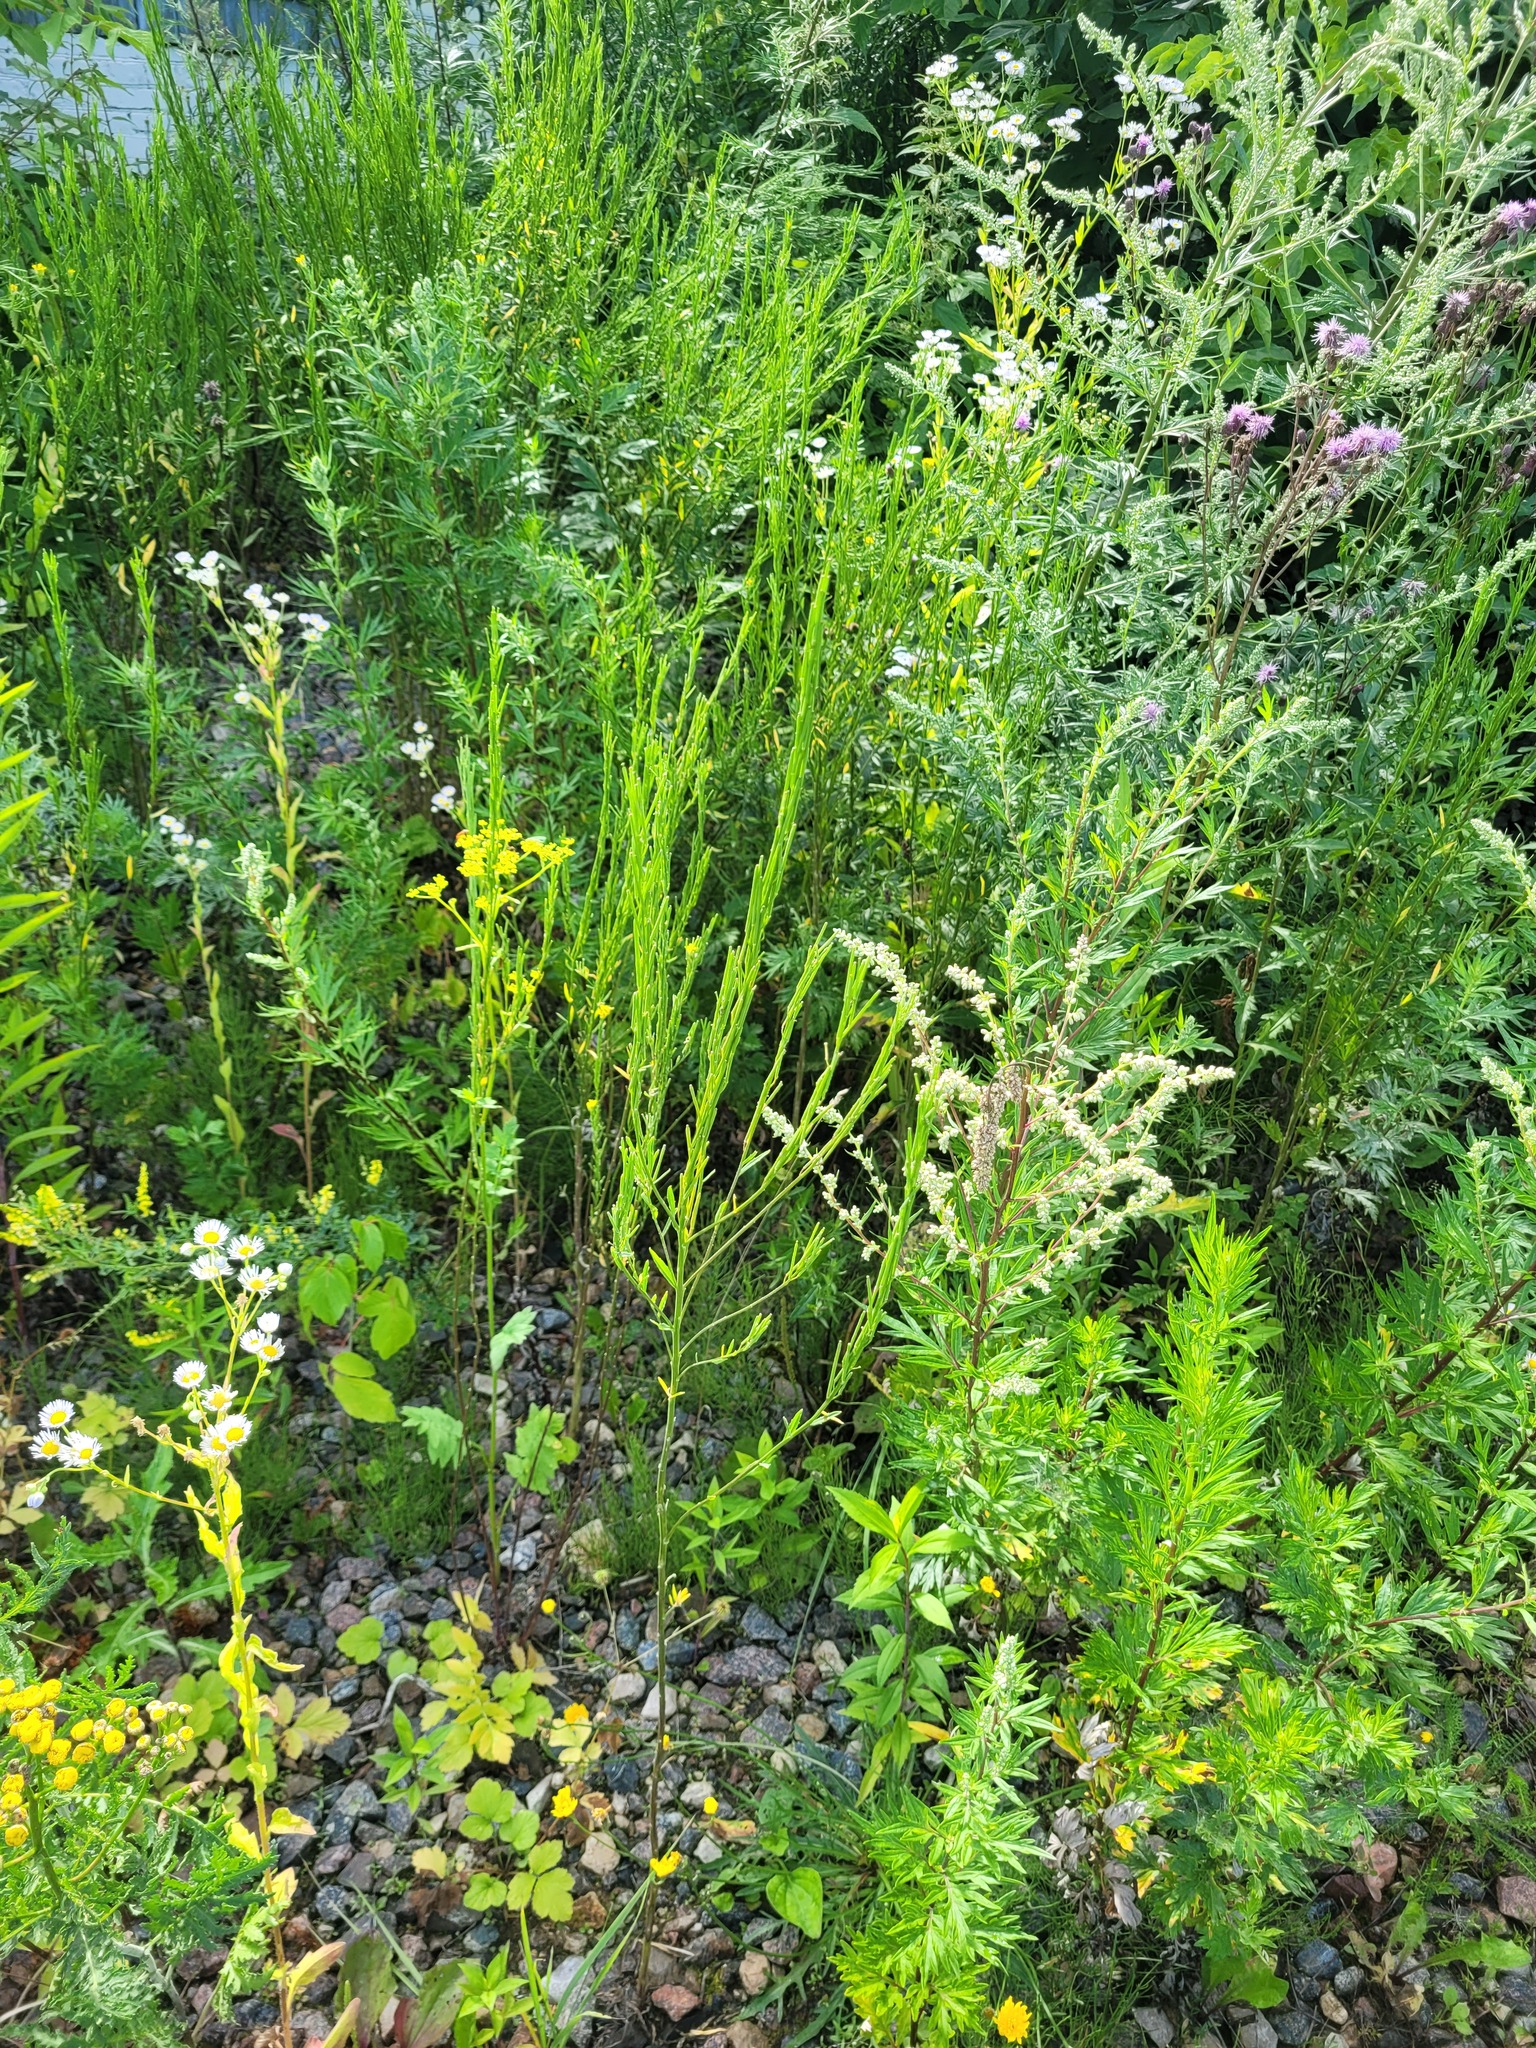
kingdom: Plantae
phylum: Tracheophyta
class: Magnoliopsida
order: Brassicales
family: Brassicaceae
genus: Erysimum
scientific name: Erysimum hieraciifolium
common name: European wallflower
